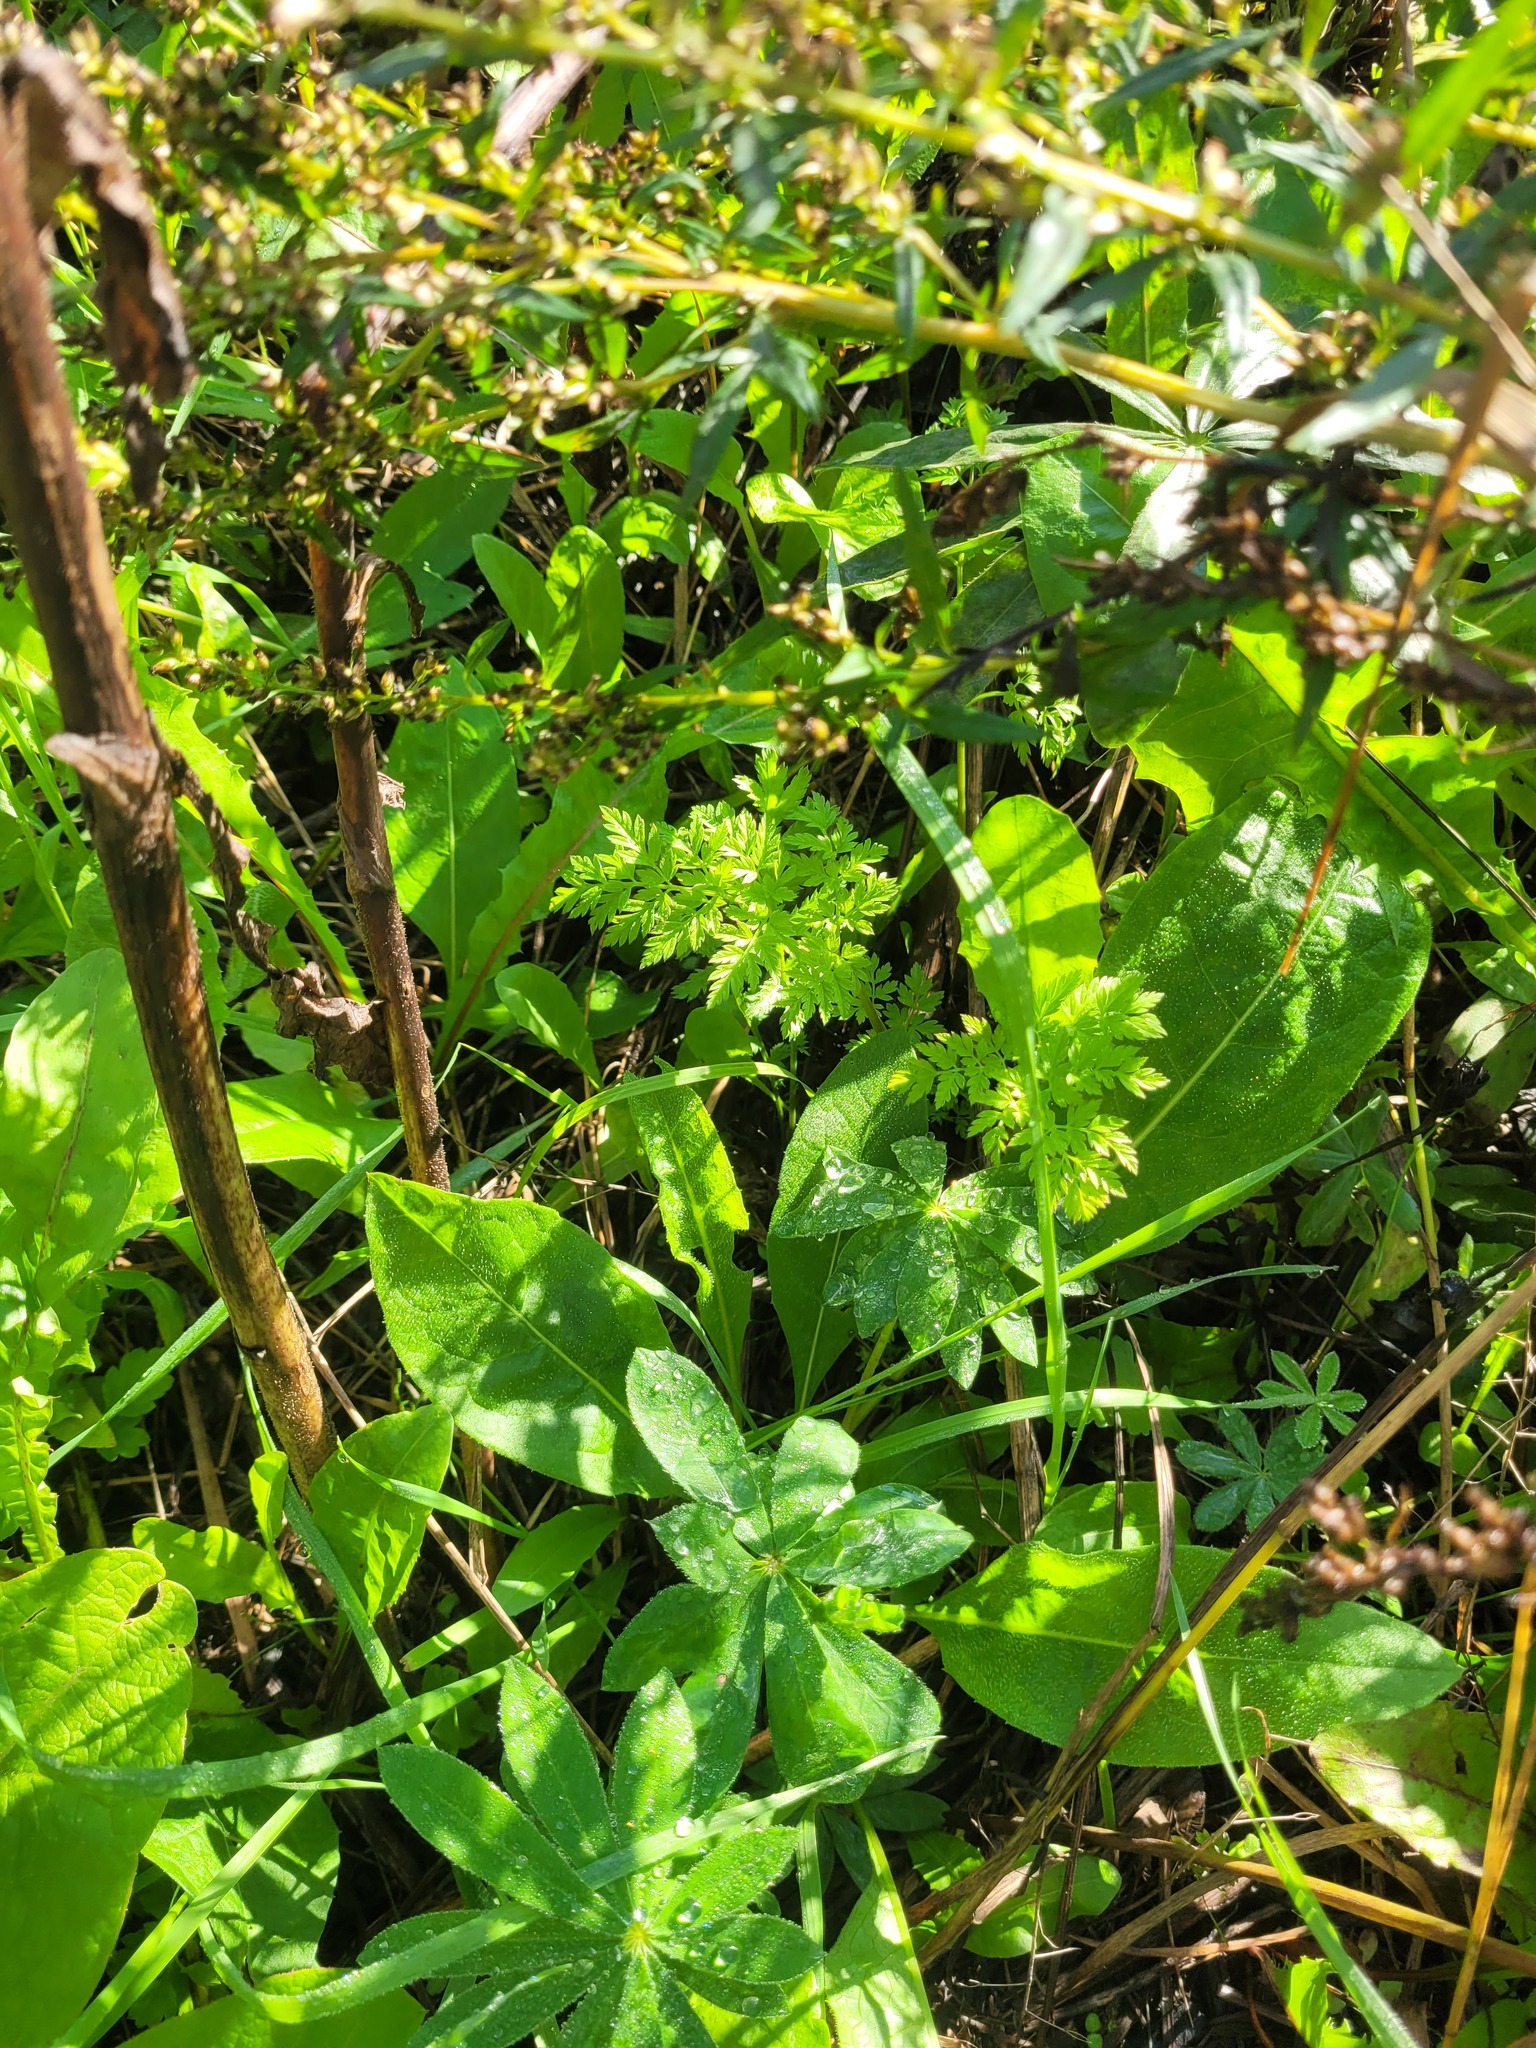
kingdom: Plantae
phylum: Tracheophyta
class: Magnoliopsida
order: Apiales
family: Apiaceae
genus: Anthriscus
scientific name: Anthriscus sylvestris
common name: Cow parsley
